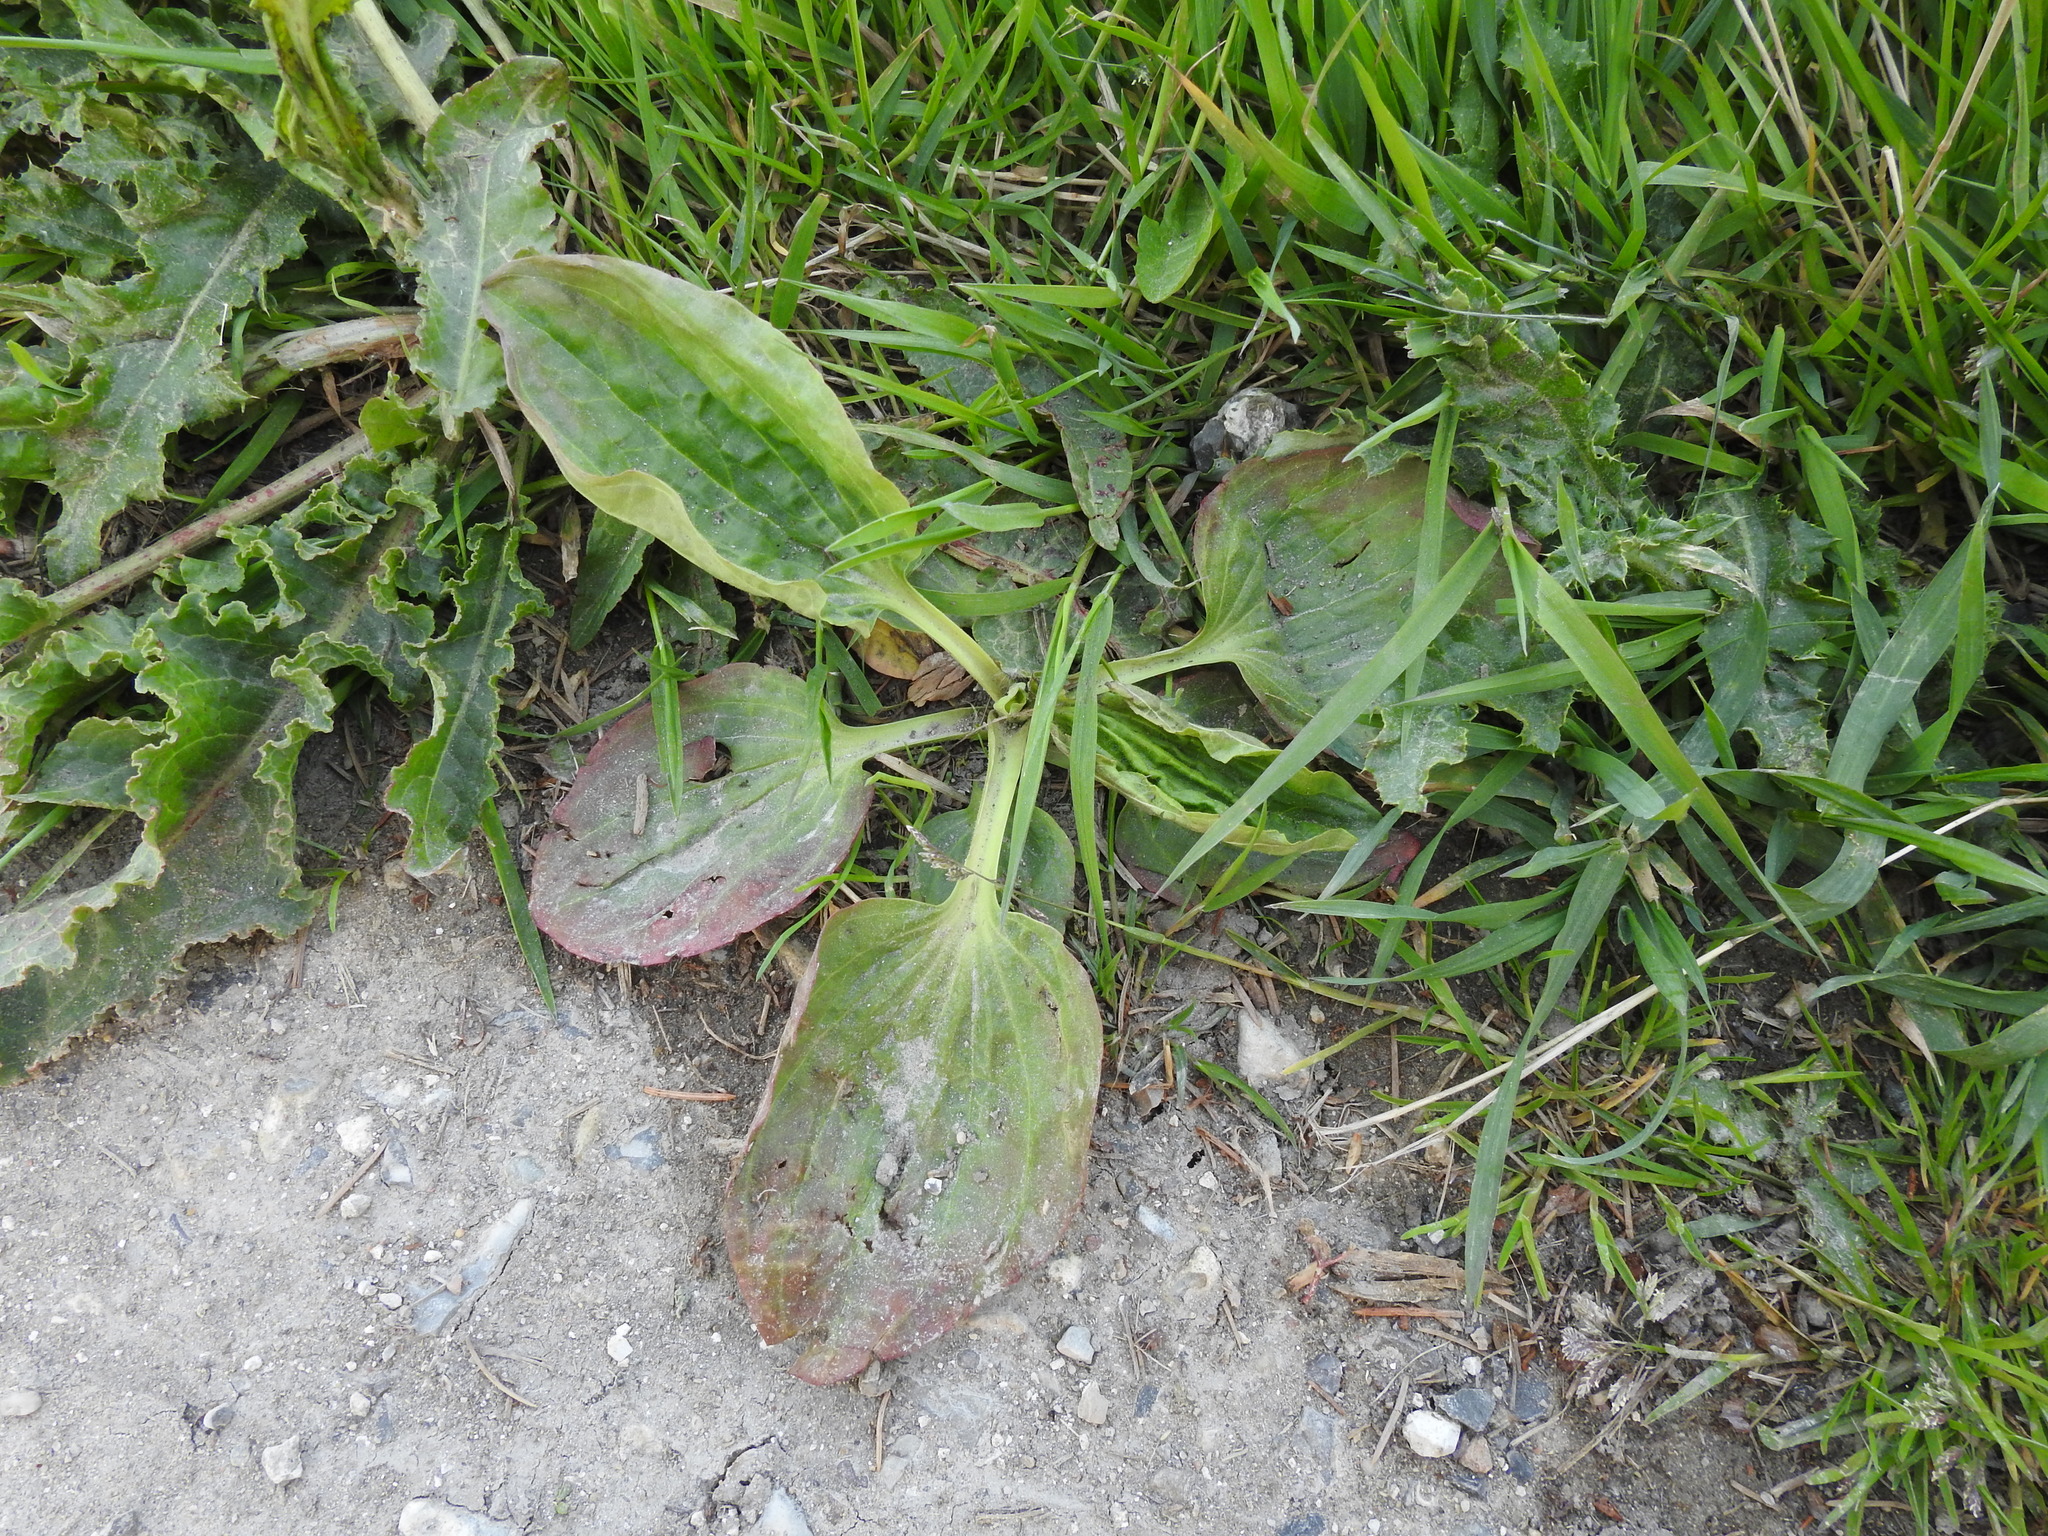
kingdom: Plantae
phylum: Tracheophyta
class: Magnoliopsida
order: Lamiales
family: Plantaginaceae
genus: Plantago
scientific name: Plantago major
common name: Common plantain
